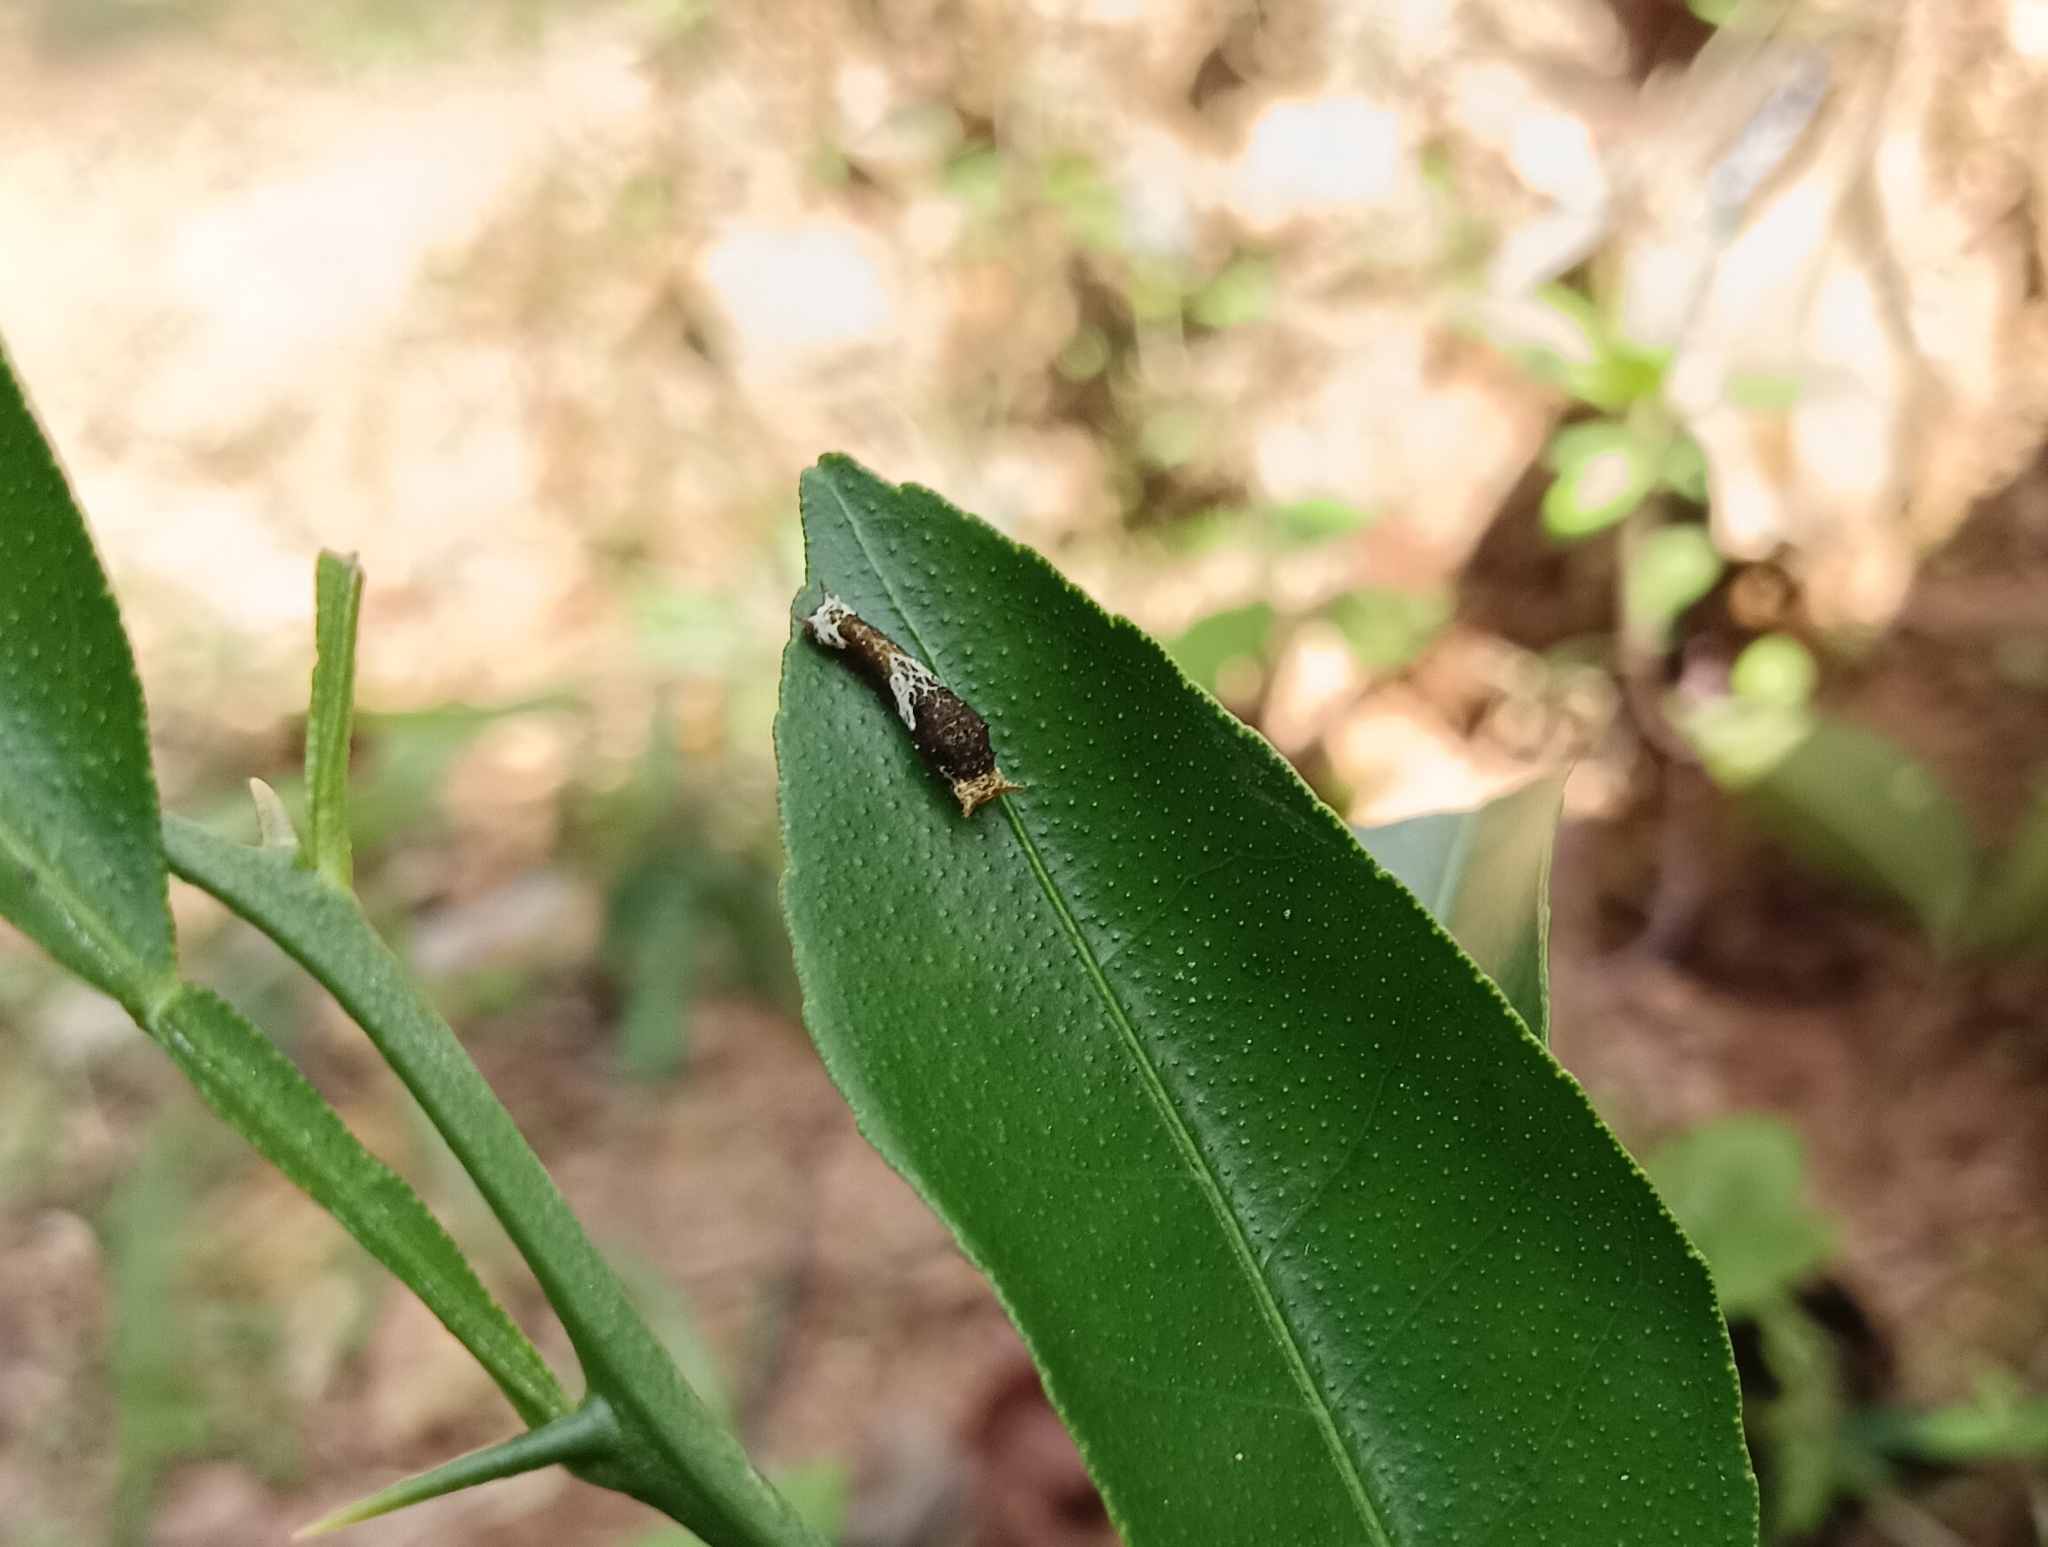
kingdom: Animalia
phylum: Arthropoda
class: Insecta
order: Lepidoptera
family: Papilionidae
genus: Papilio
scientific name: Papilio polytes
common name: Common mormon
